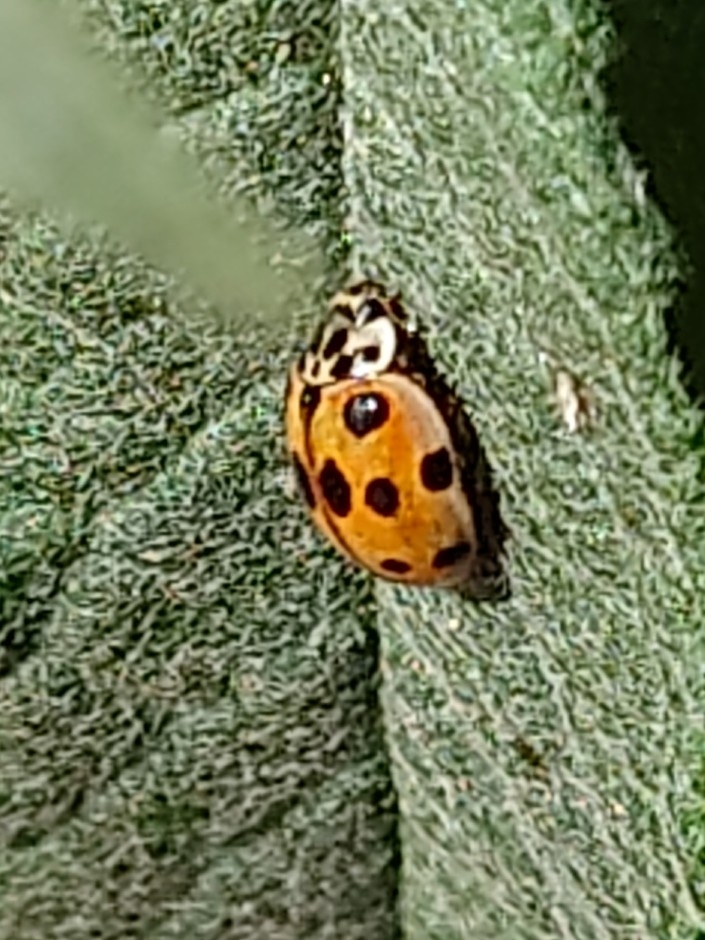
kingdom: Animalia
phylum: Arthropoda
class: Insecta
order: Coleoptera
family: Coccinellidae
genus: Adalia
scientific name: Adalia decempunctata
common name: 10-spot ladybird
